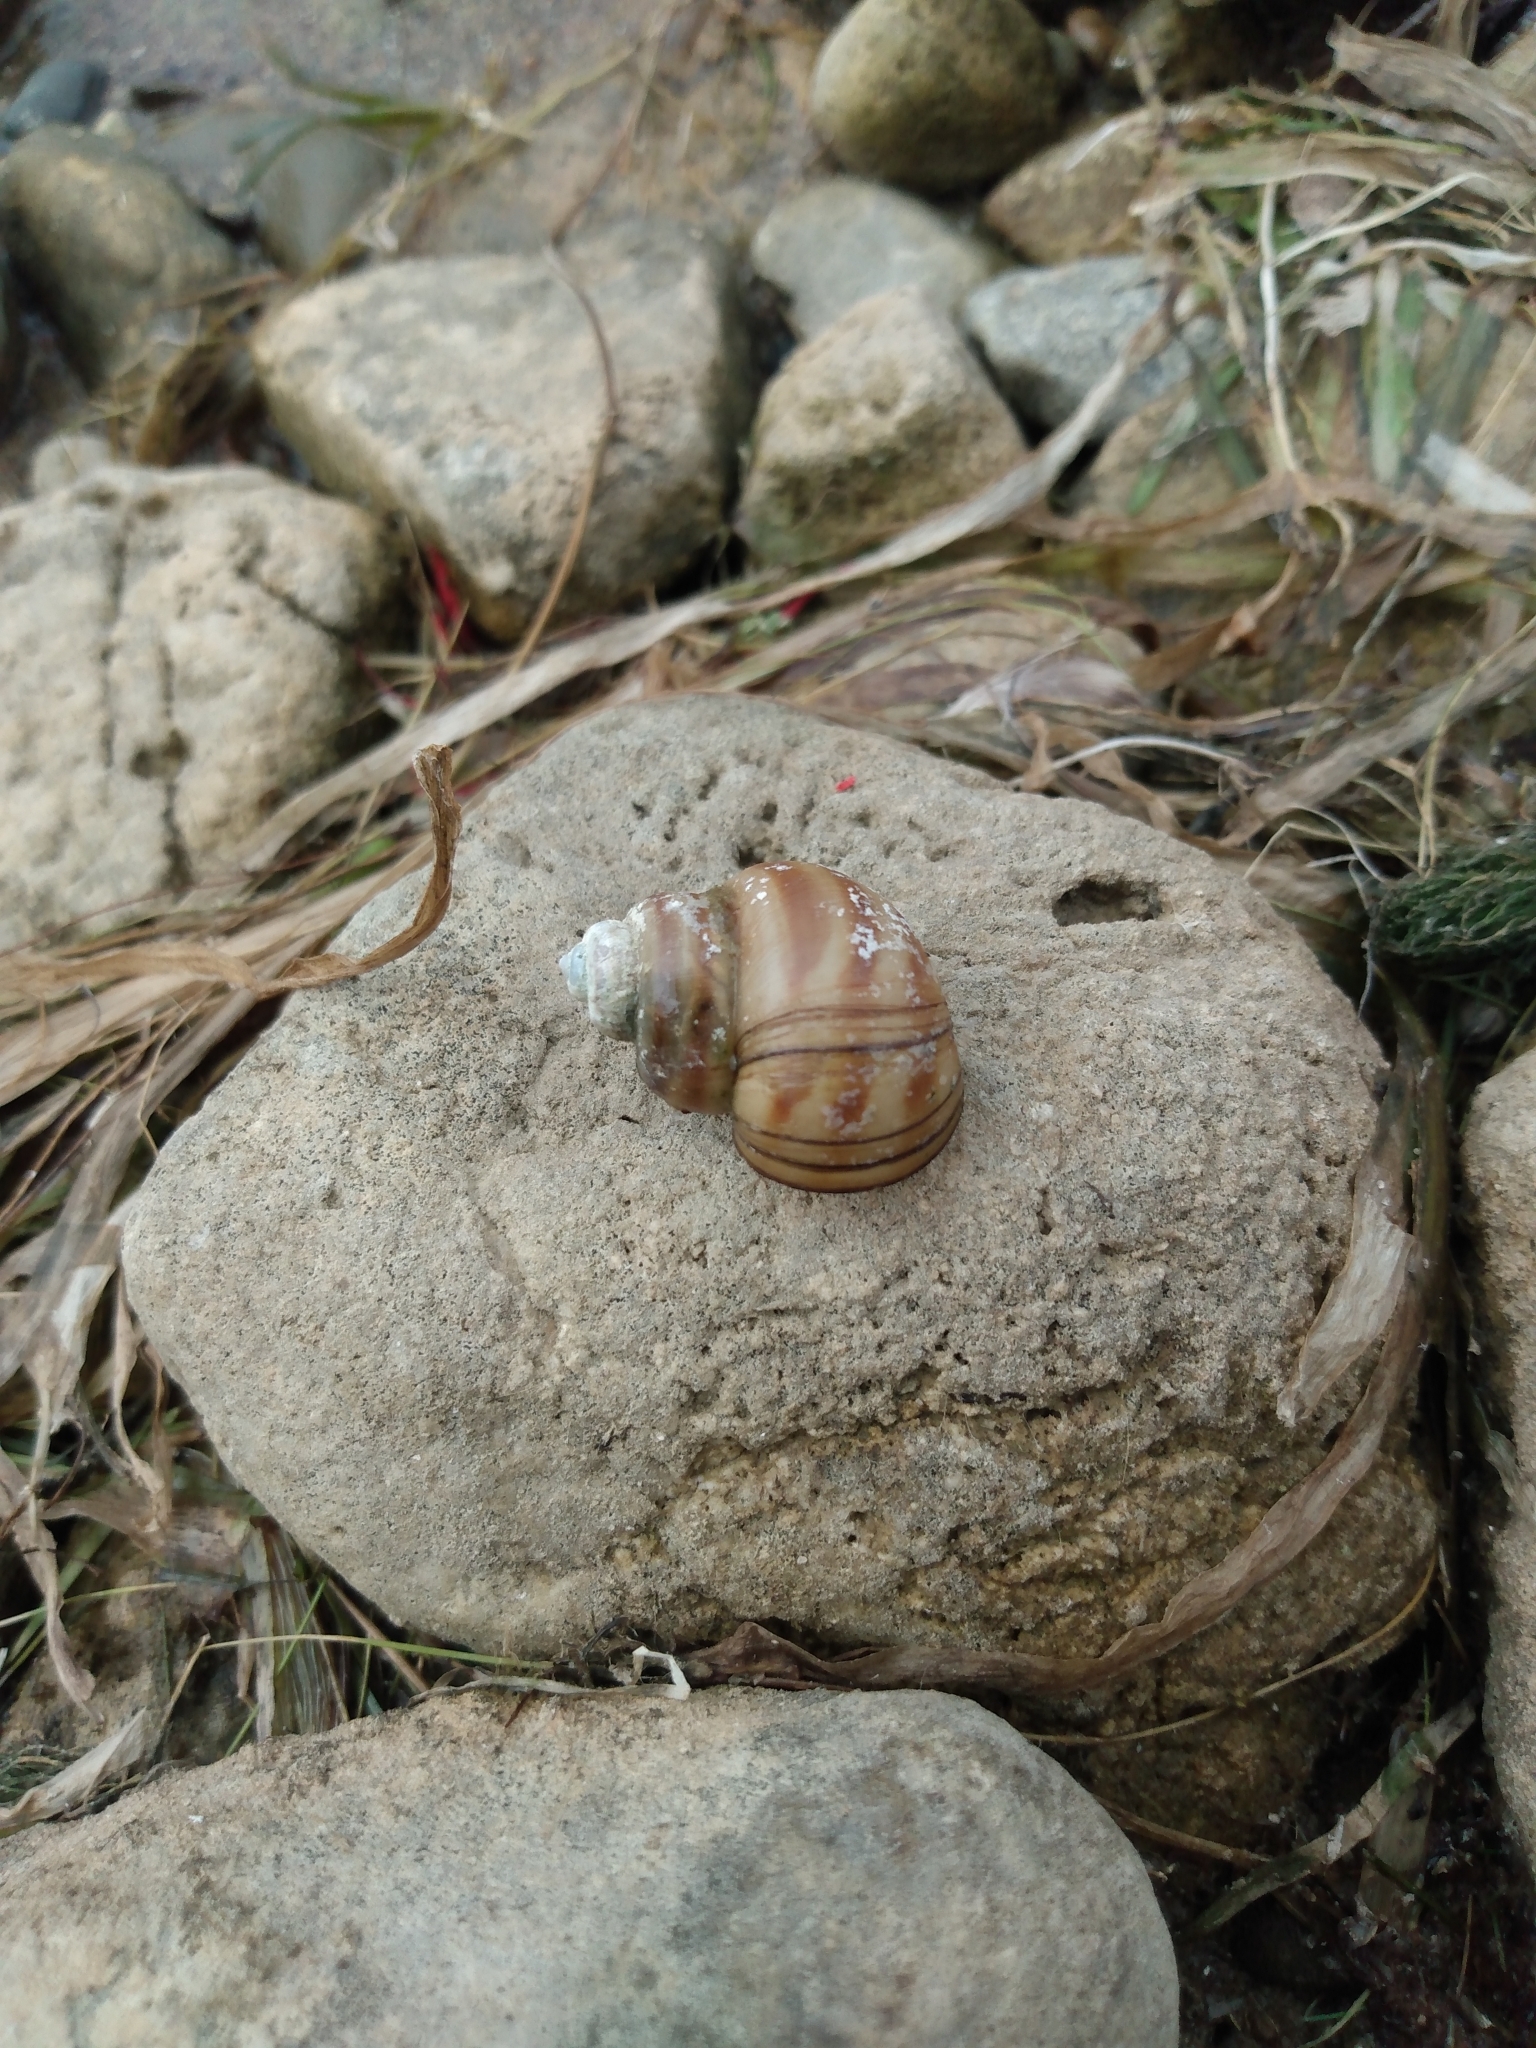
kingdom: Animalia
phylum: Mollusca
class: Gastropoda
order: Architaenioglossa
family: Viviparidae
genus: Callinina
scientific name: Callinina georgiana
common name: Banded mystery snail
